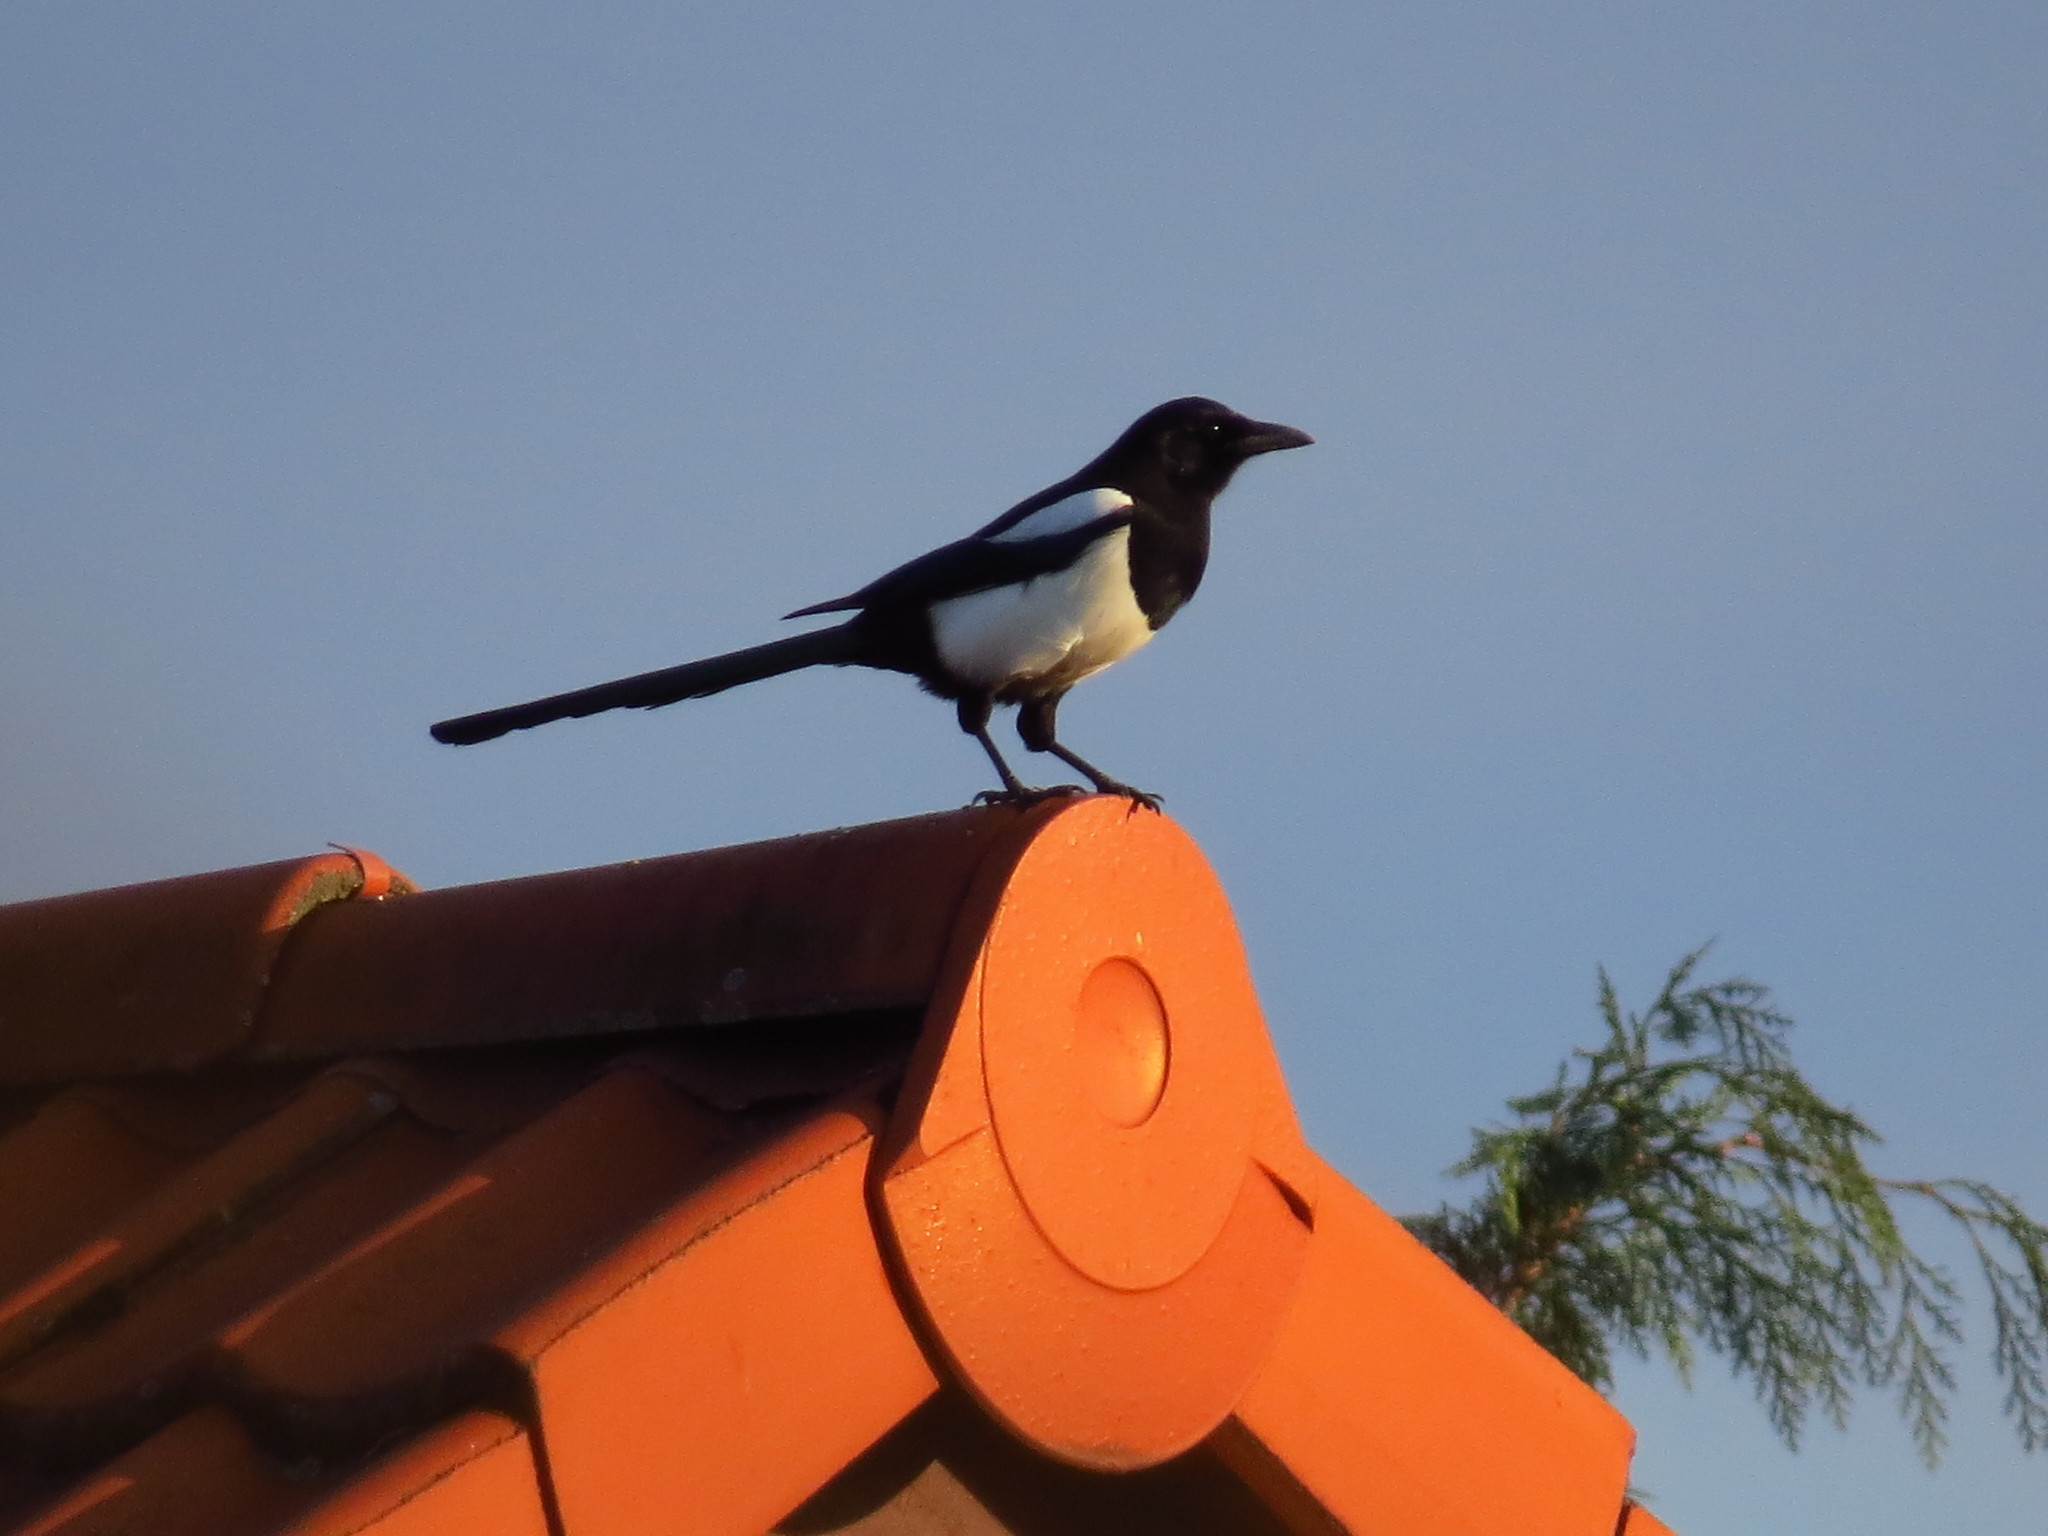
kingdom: Animalia
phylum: Chordata
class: Aves
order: Passeriformes
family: Corvidae
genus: Pica
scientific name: Pica pica
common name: Eurasian magpie
